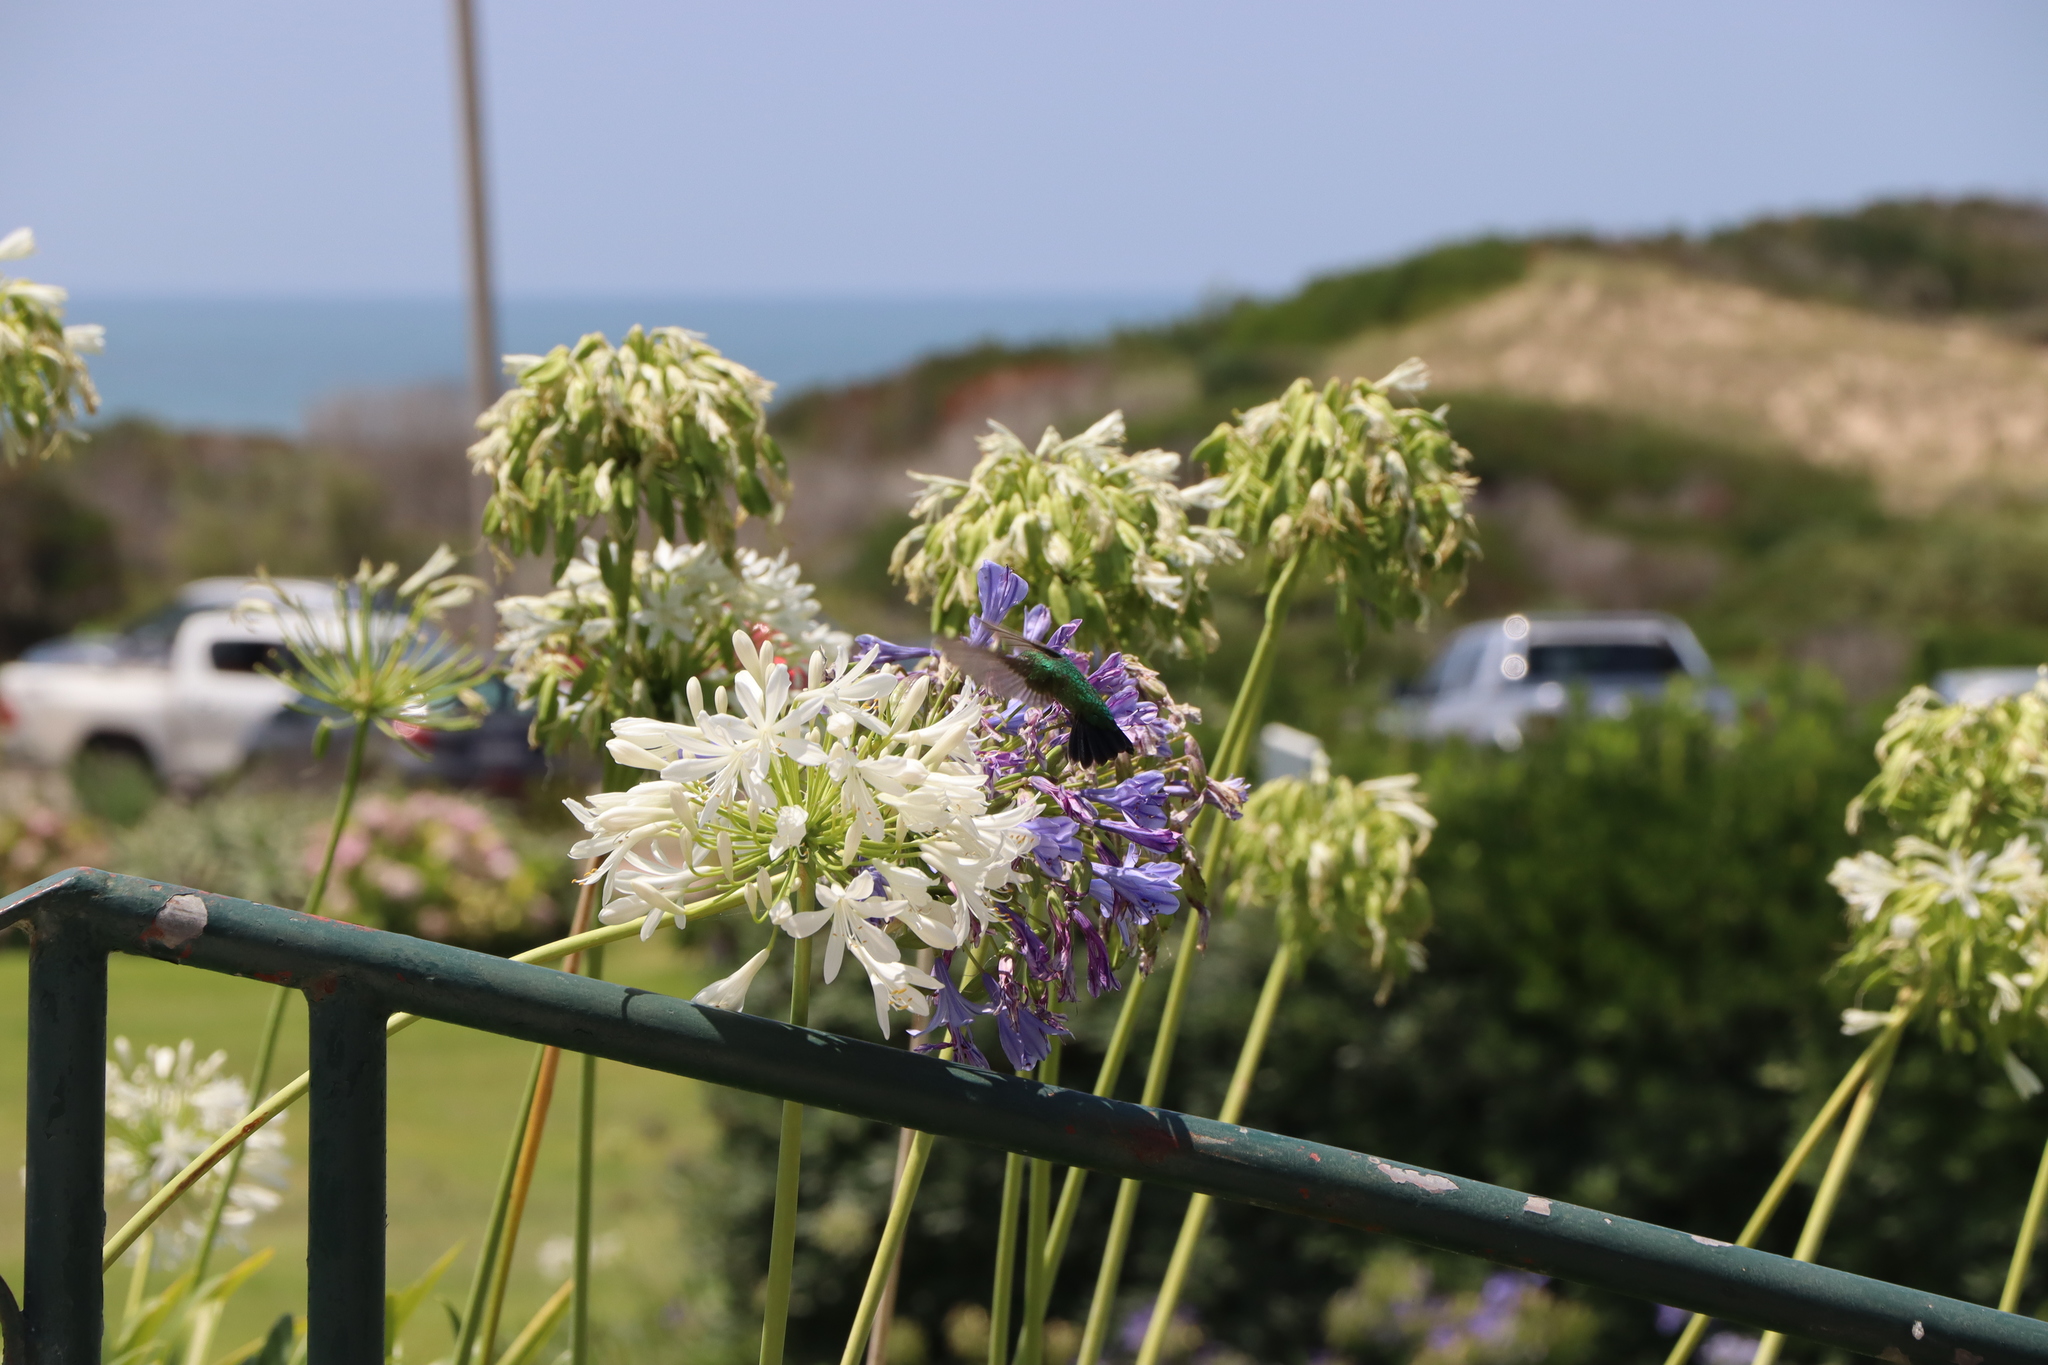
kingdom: Animalia
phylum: Chordata
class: Aves
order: Apodiformes
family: Trochilidae
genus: Chlorostilbon
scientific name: Chlorostilbon lucidus
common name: Glittering-bellied emerald
